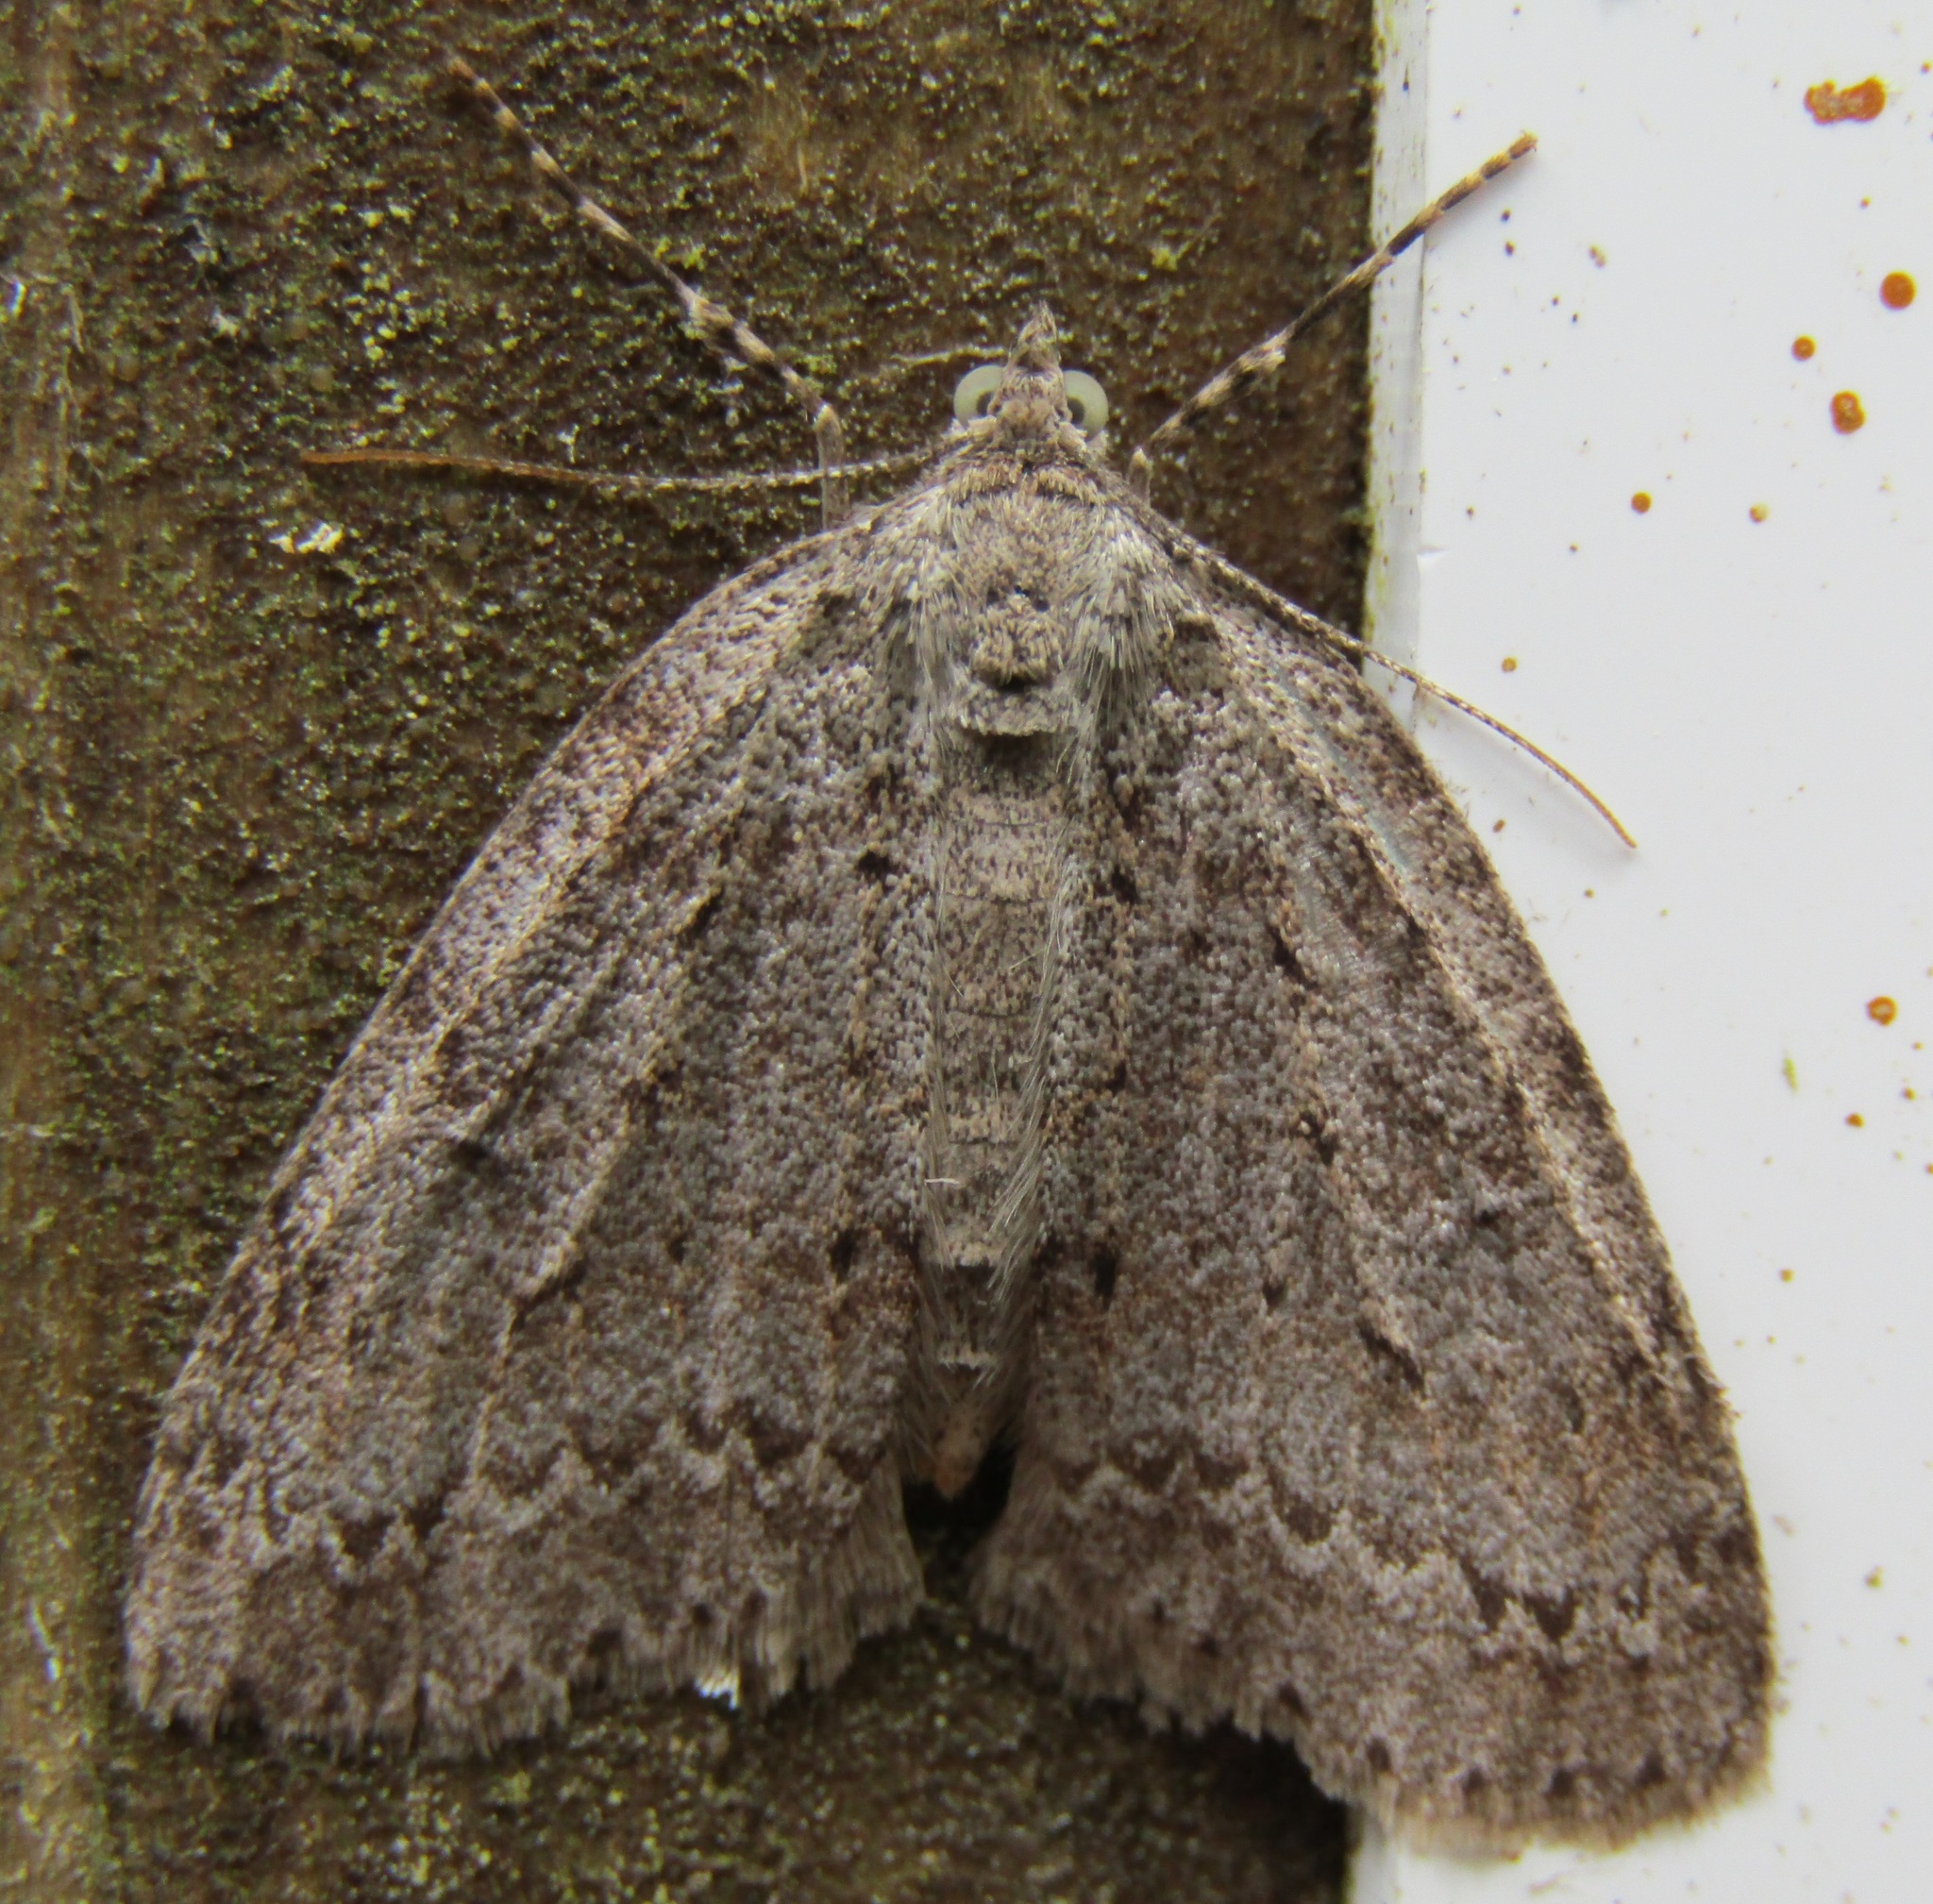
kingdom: Animalia
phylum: Arthropoda
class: Insecta
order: Lepidoptera
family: Geometridae
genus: Pseudocoremia
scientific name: Pseudocoremia fenerata
